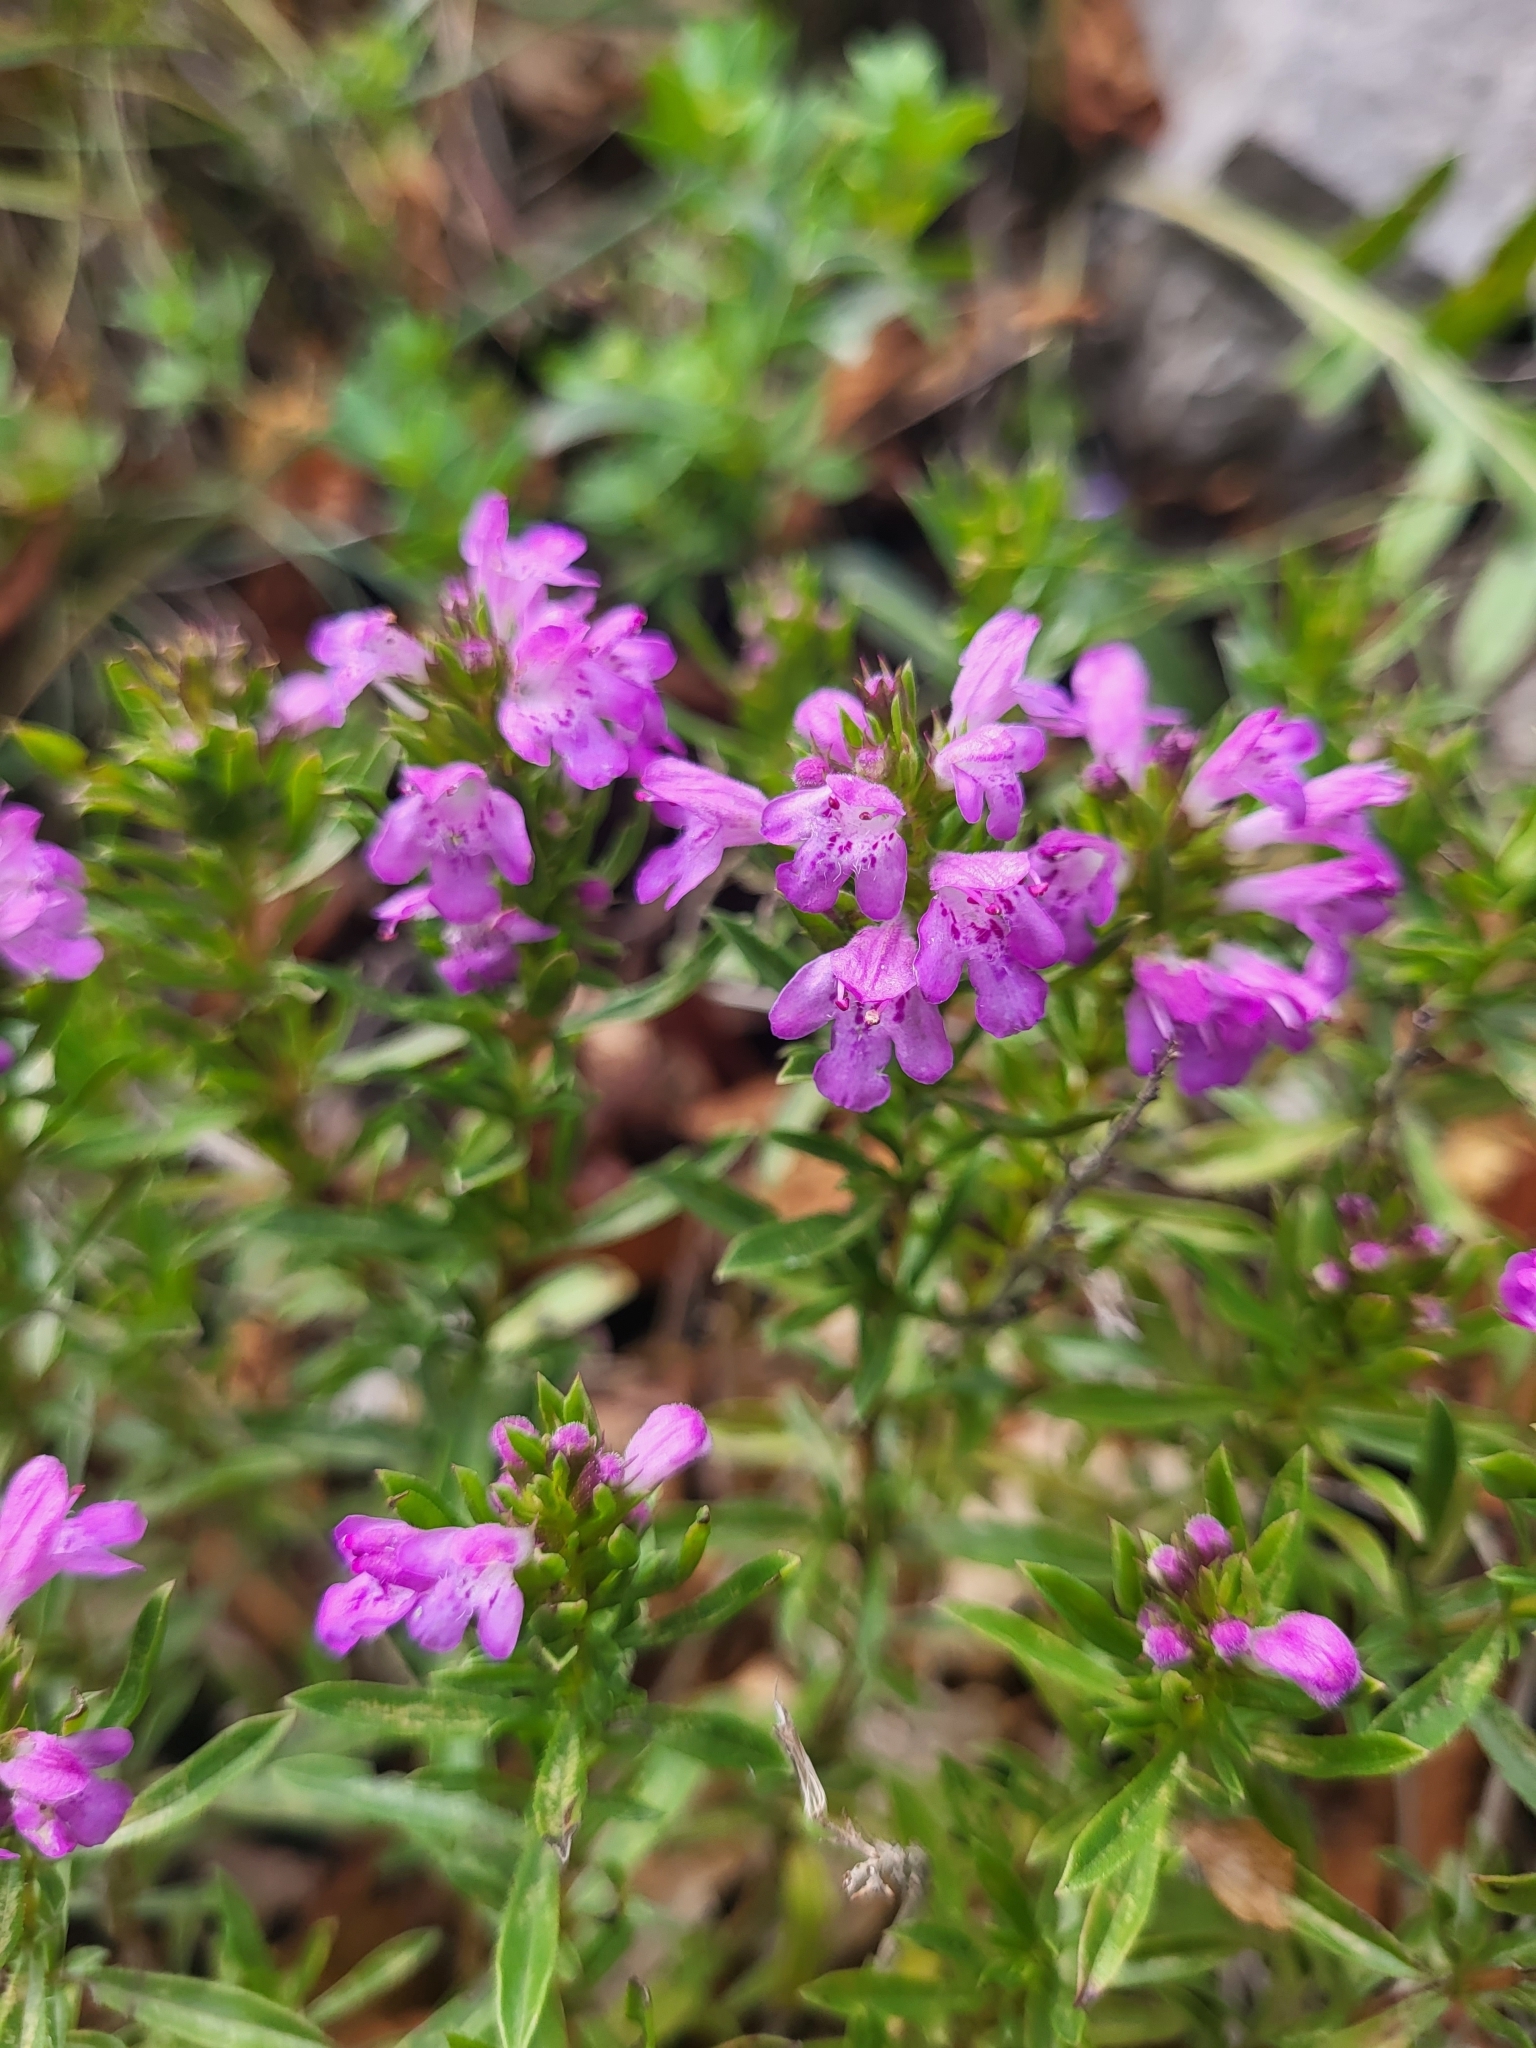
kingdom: Plantae
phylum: Tracheophyta
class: Magnoliopsida
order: Lamiales
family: Lamiaceae
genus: Satureja
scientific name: Satureja subspicata
